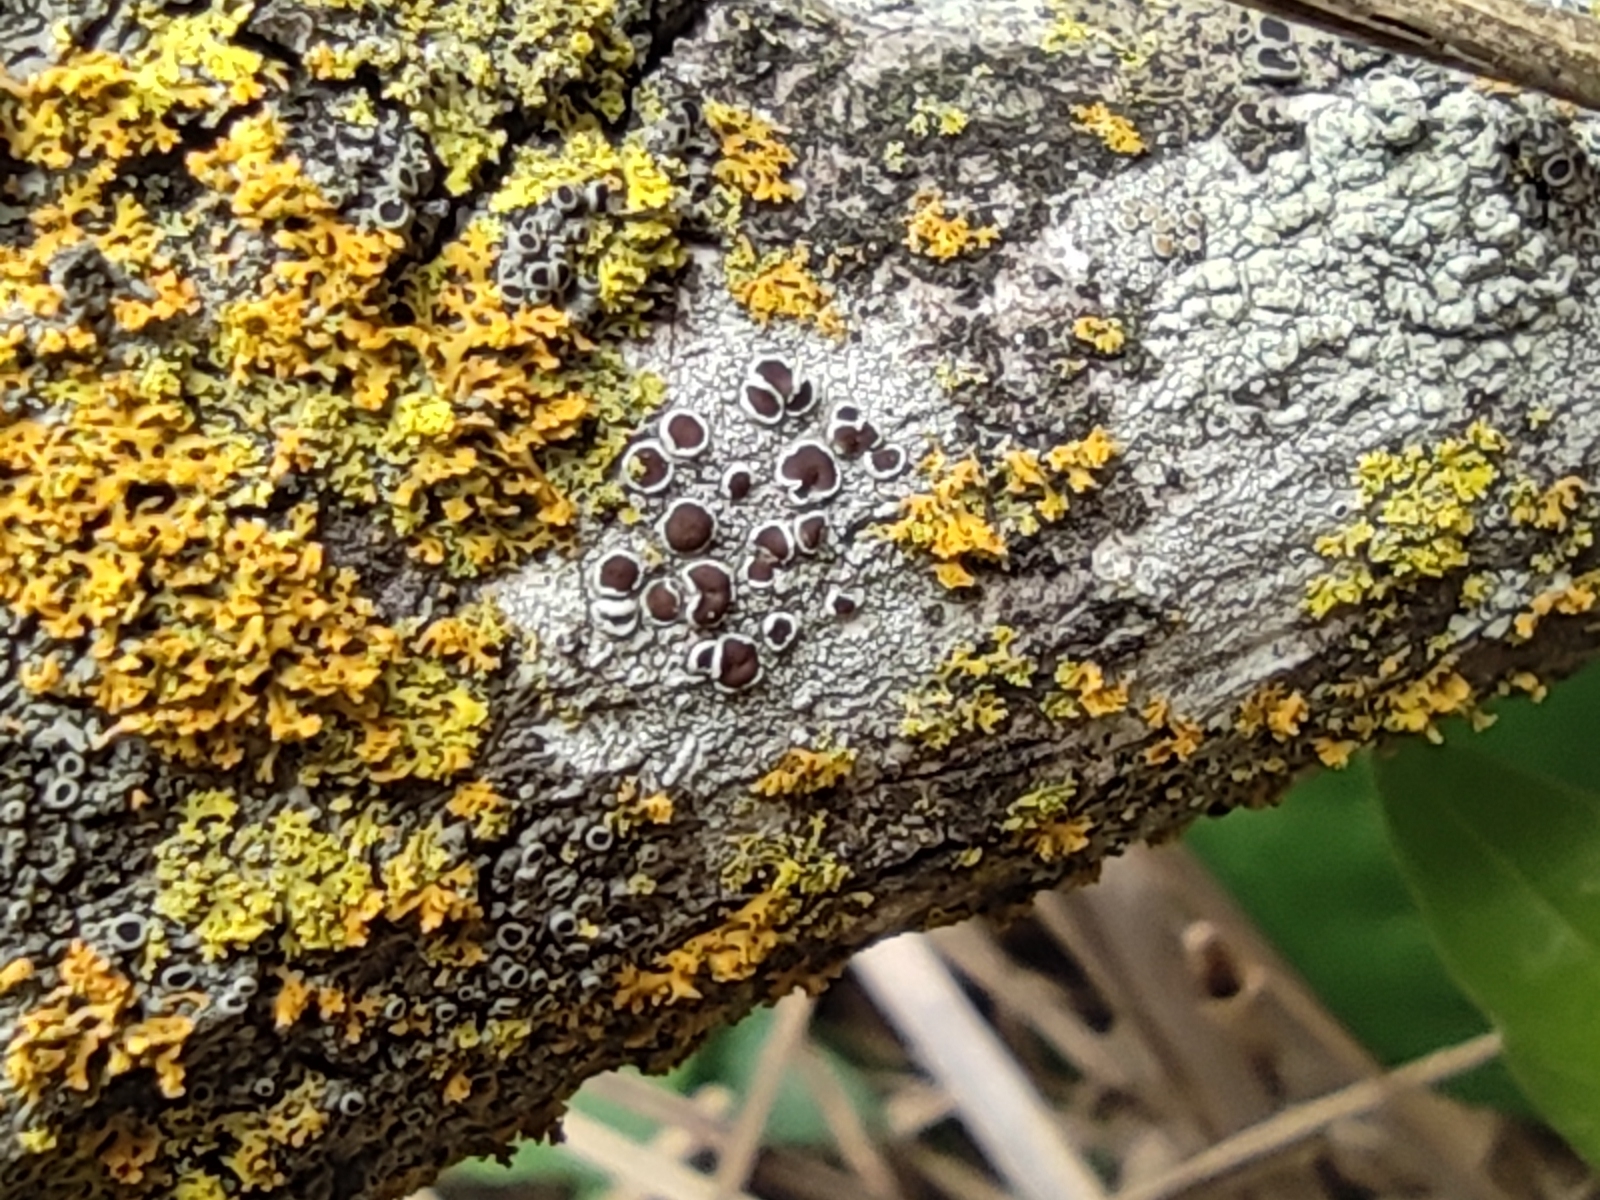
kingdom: Fungi
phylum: Ascomycota
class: Lecanoromycetes
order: Lecanorales
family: Lecanoraceae
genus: Lecanora
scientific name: Lecanora horiza
